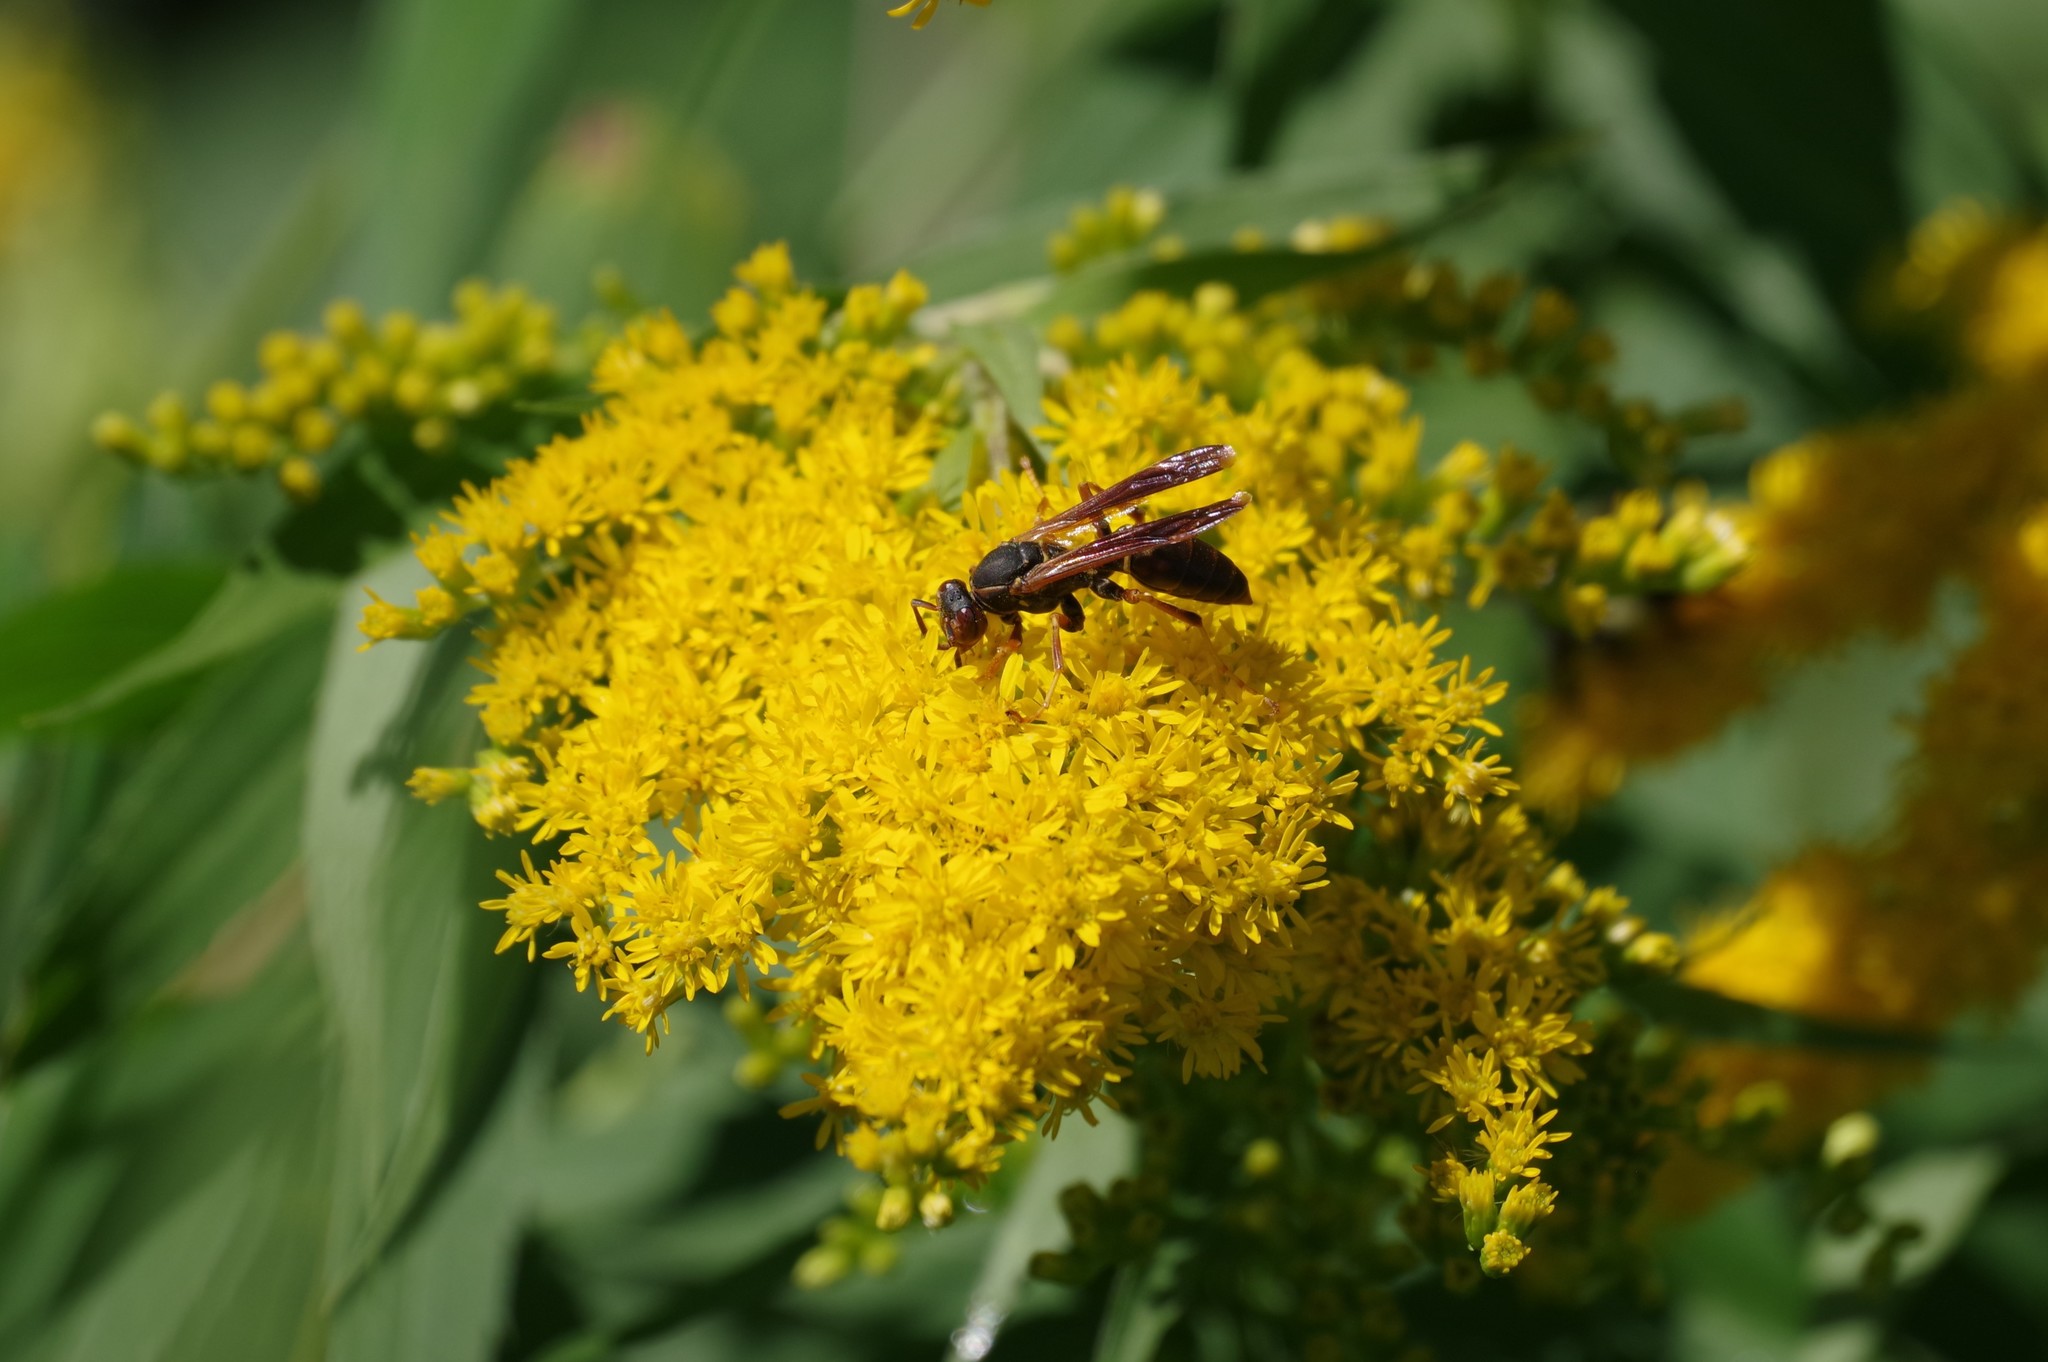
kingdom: Animalia
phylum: Arthropoda
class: Insecta
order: Hymenoptera
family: Eumenidae
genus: Polistes
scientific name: Polistes fuscatus
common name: Dark paper wasp
